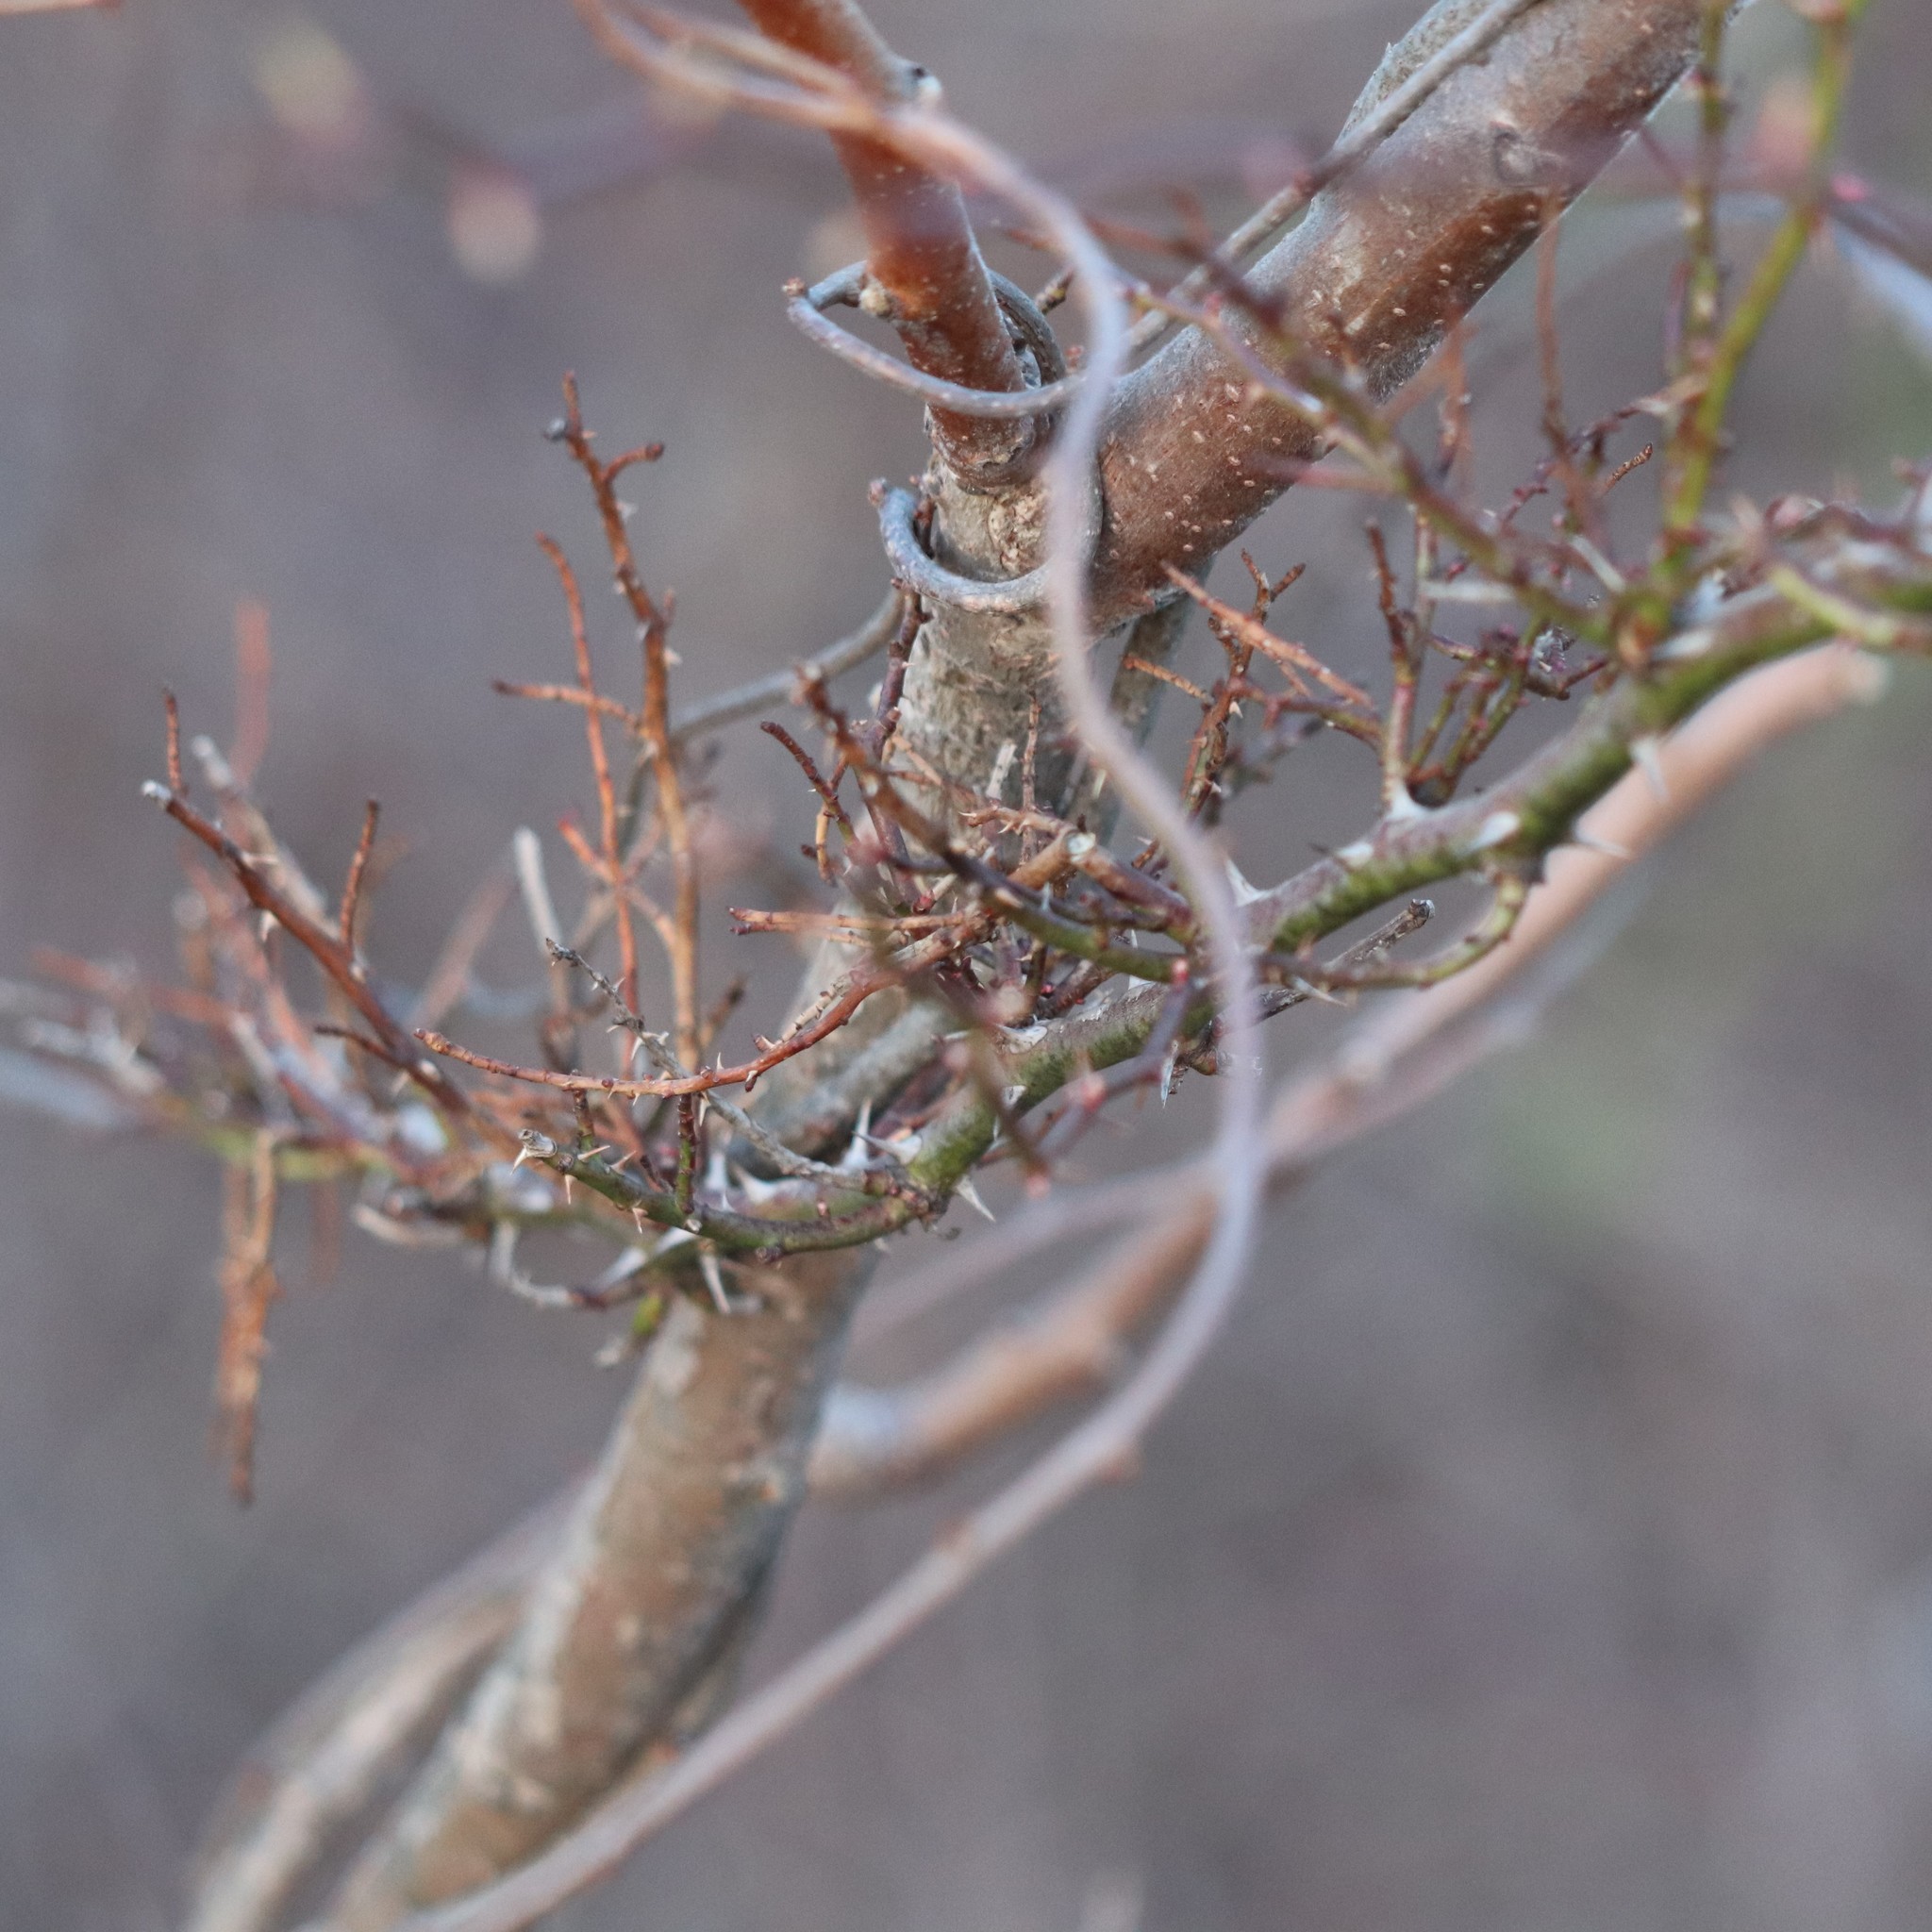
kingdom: Viruses
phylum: Negarnaviricota
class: Ellioviricetes
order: Bunyavirales
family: Fimoviridae
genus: Emaravirus
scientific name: Emaravirus rosae
